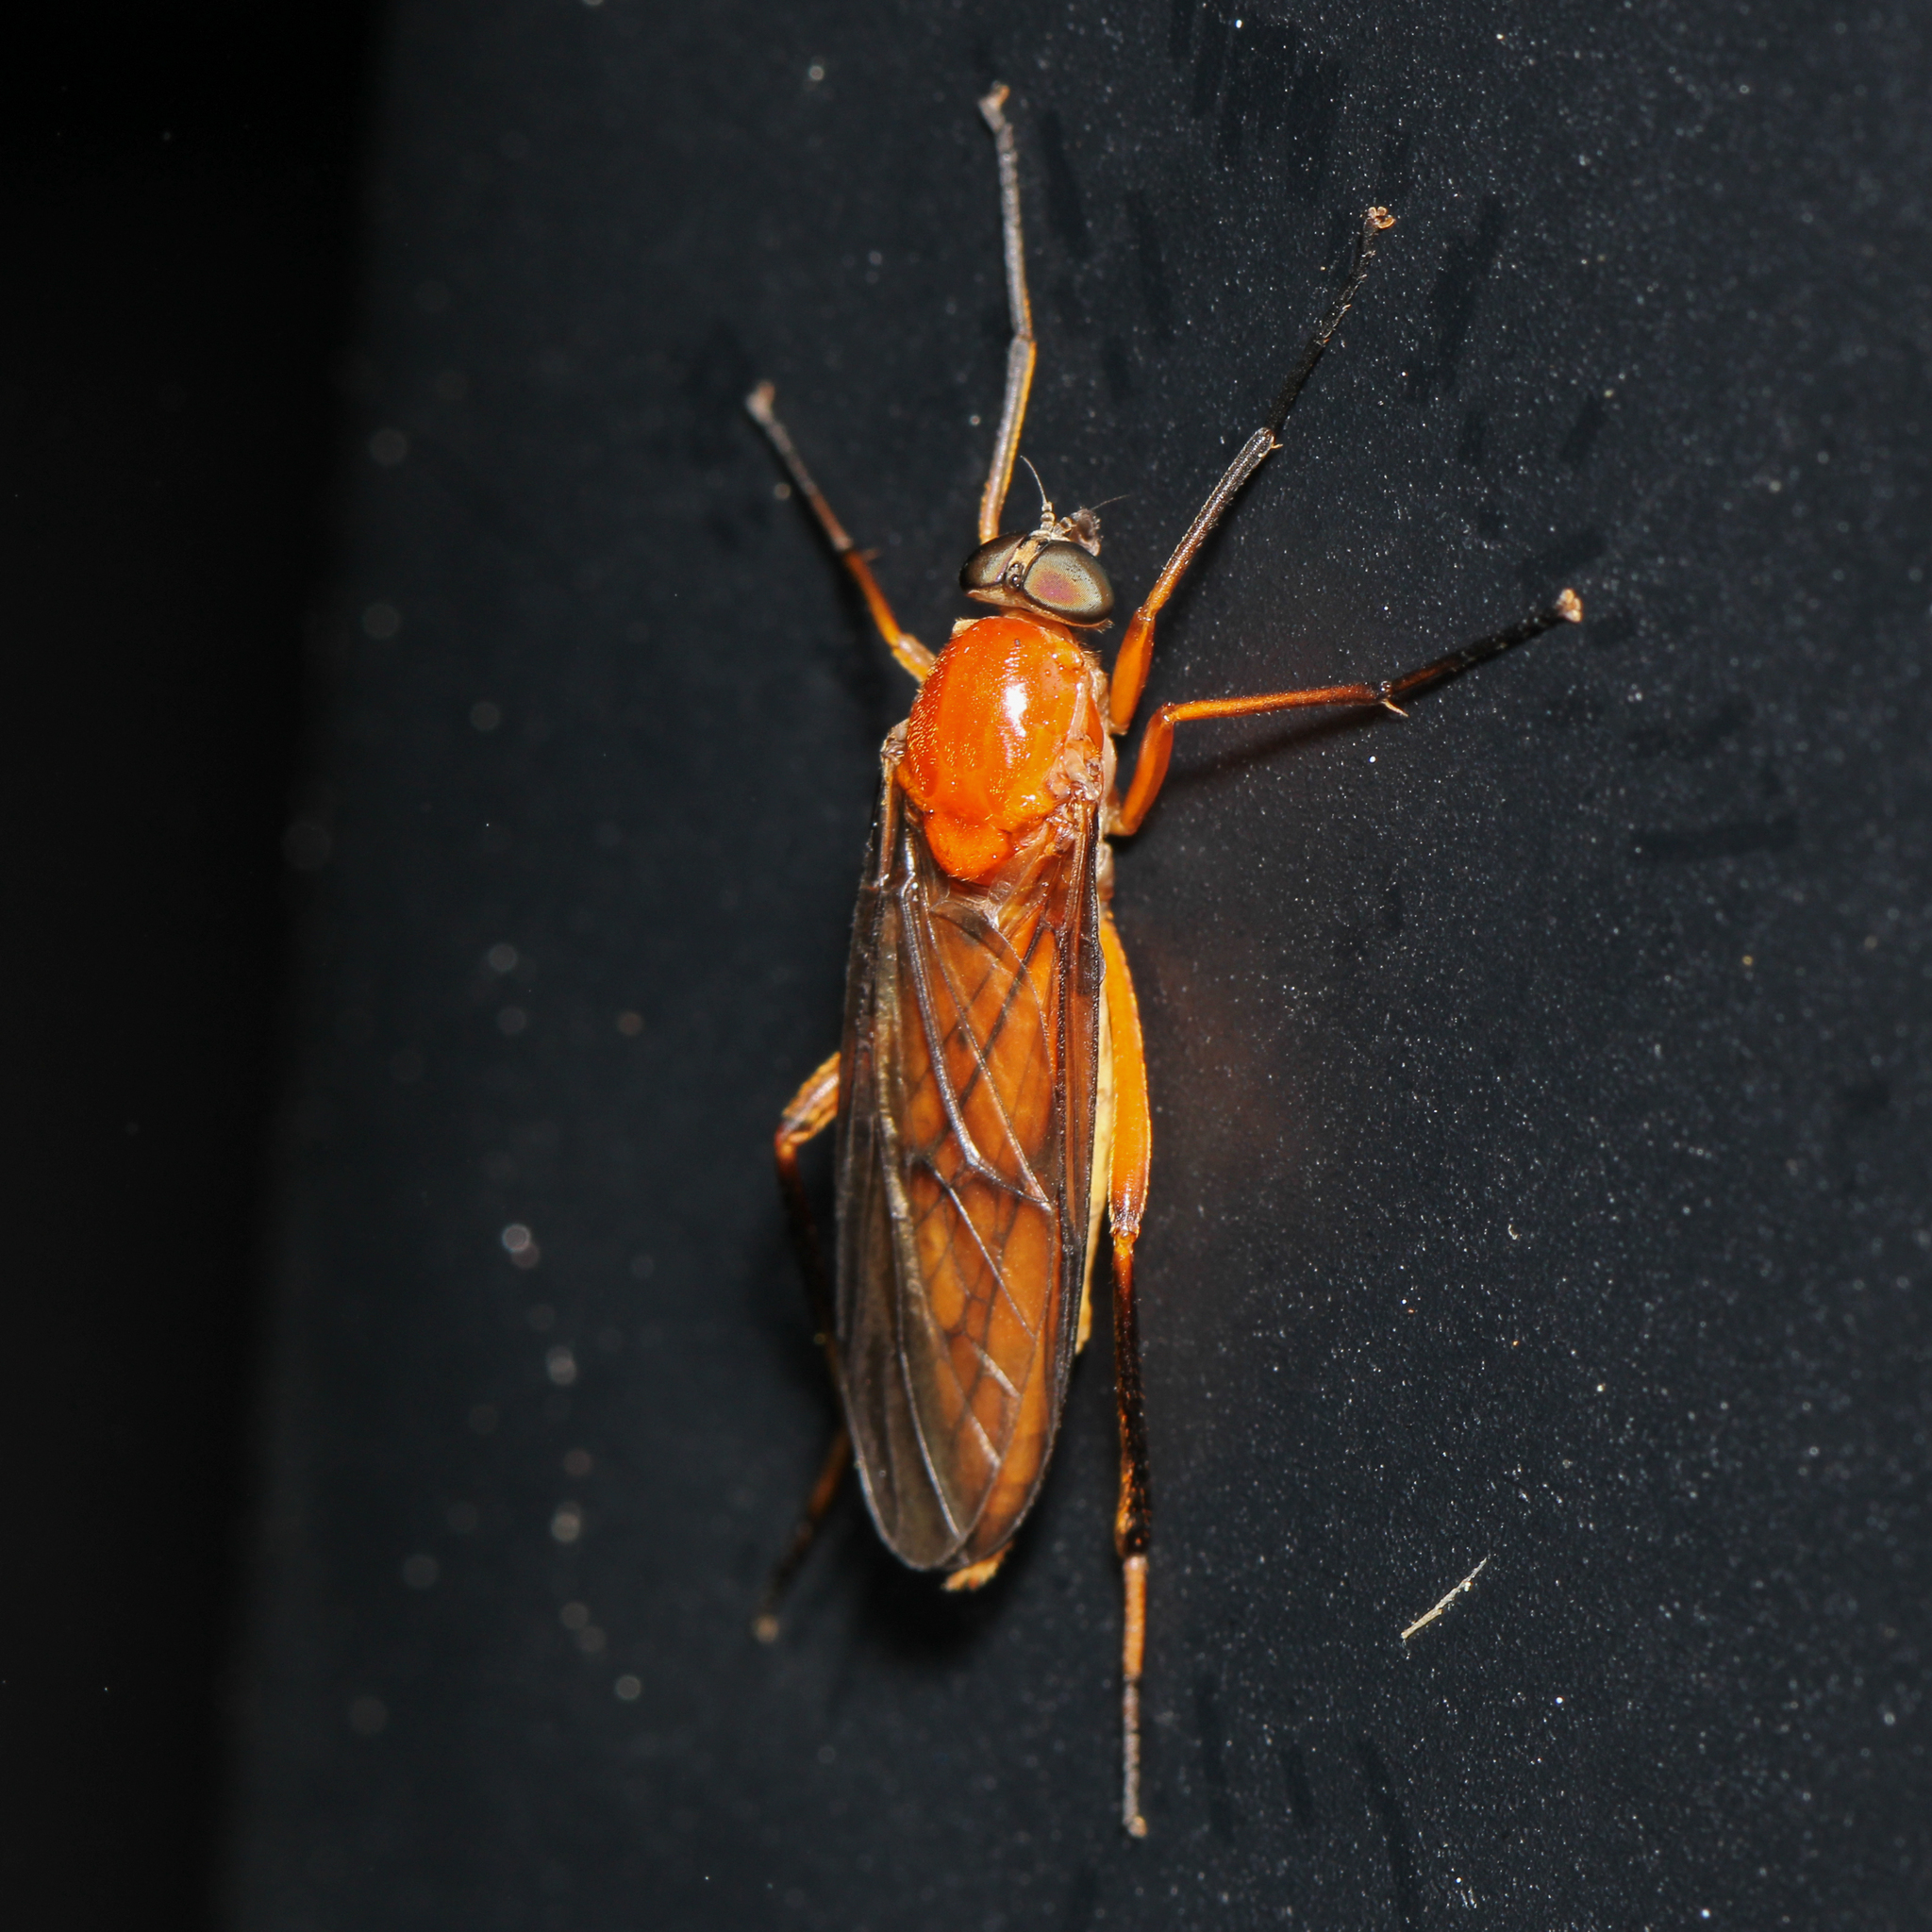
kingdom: Animalia
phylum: Arthropoda
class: Insecta
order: Diptera
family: Xylophagidae
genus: Dialysis
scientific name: Dialysis rufithorax
